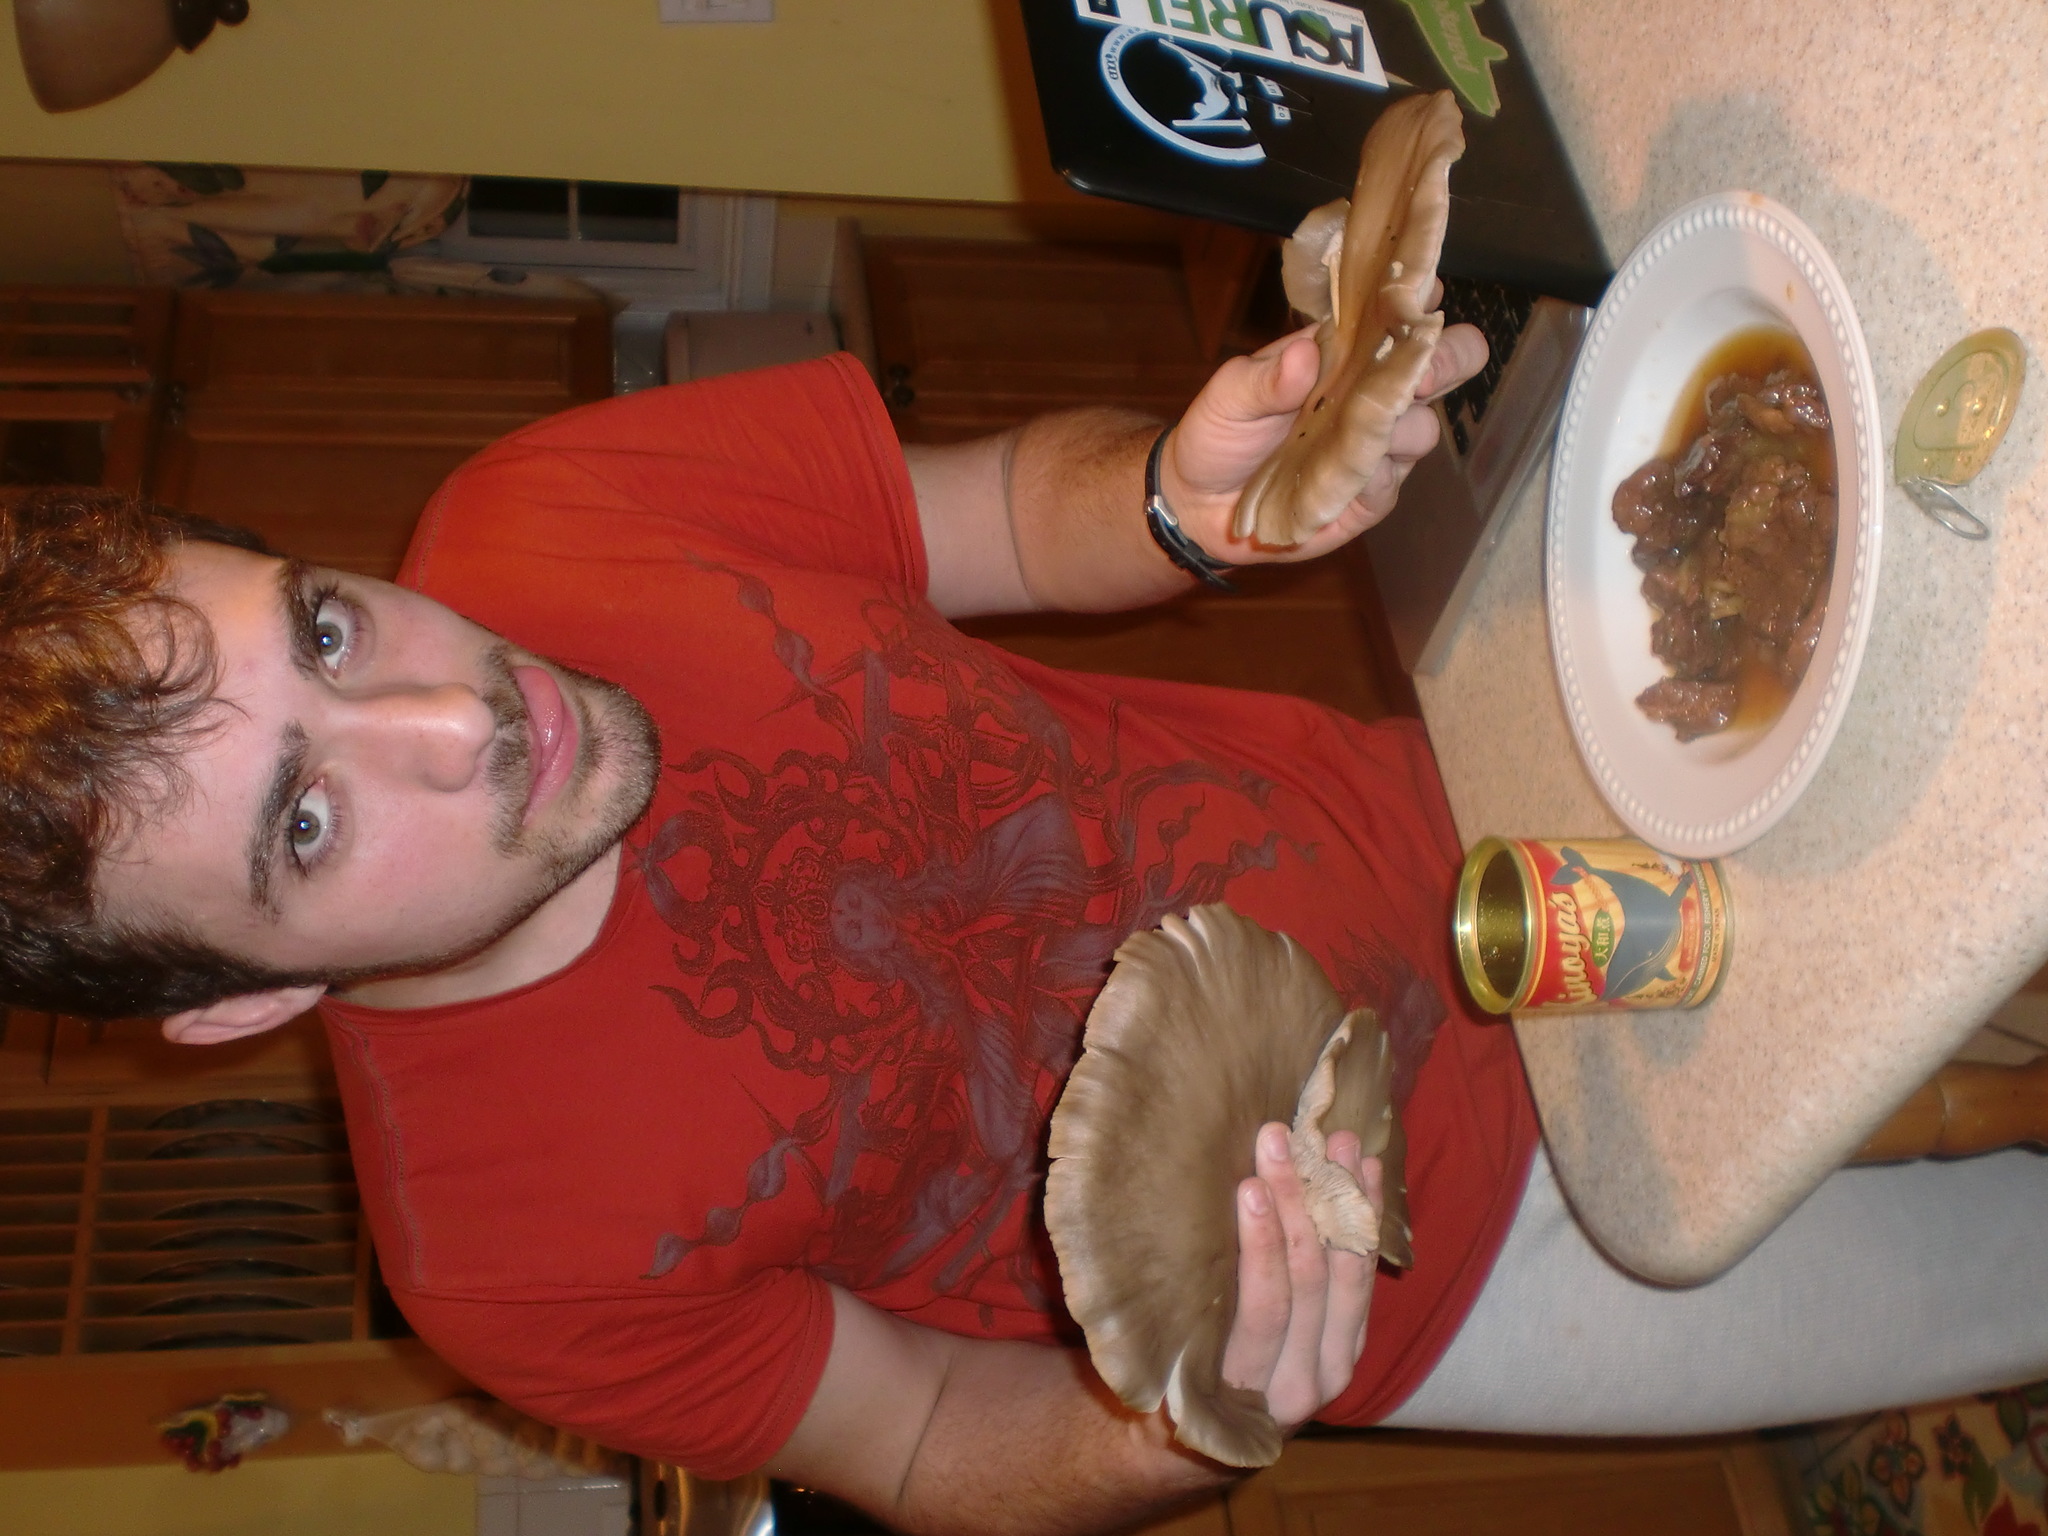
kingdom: Fungi
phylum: Basidiomycota
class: Agaricomycetes
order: Agaricales
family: Pleurotaceae
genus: Pleurotus
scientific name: Pleurotus ostreatus
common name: Oyster mushroom
